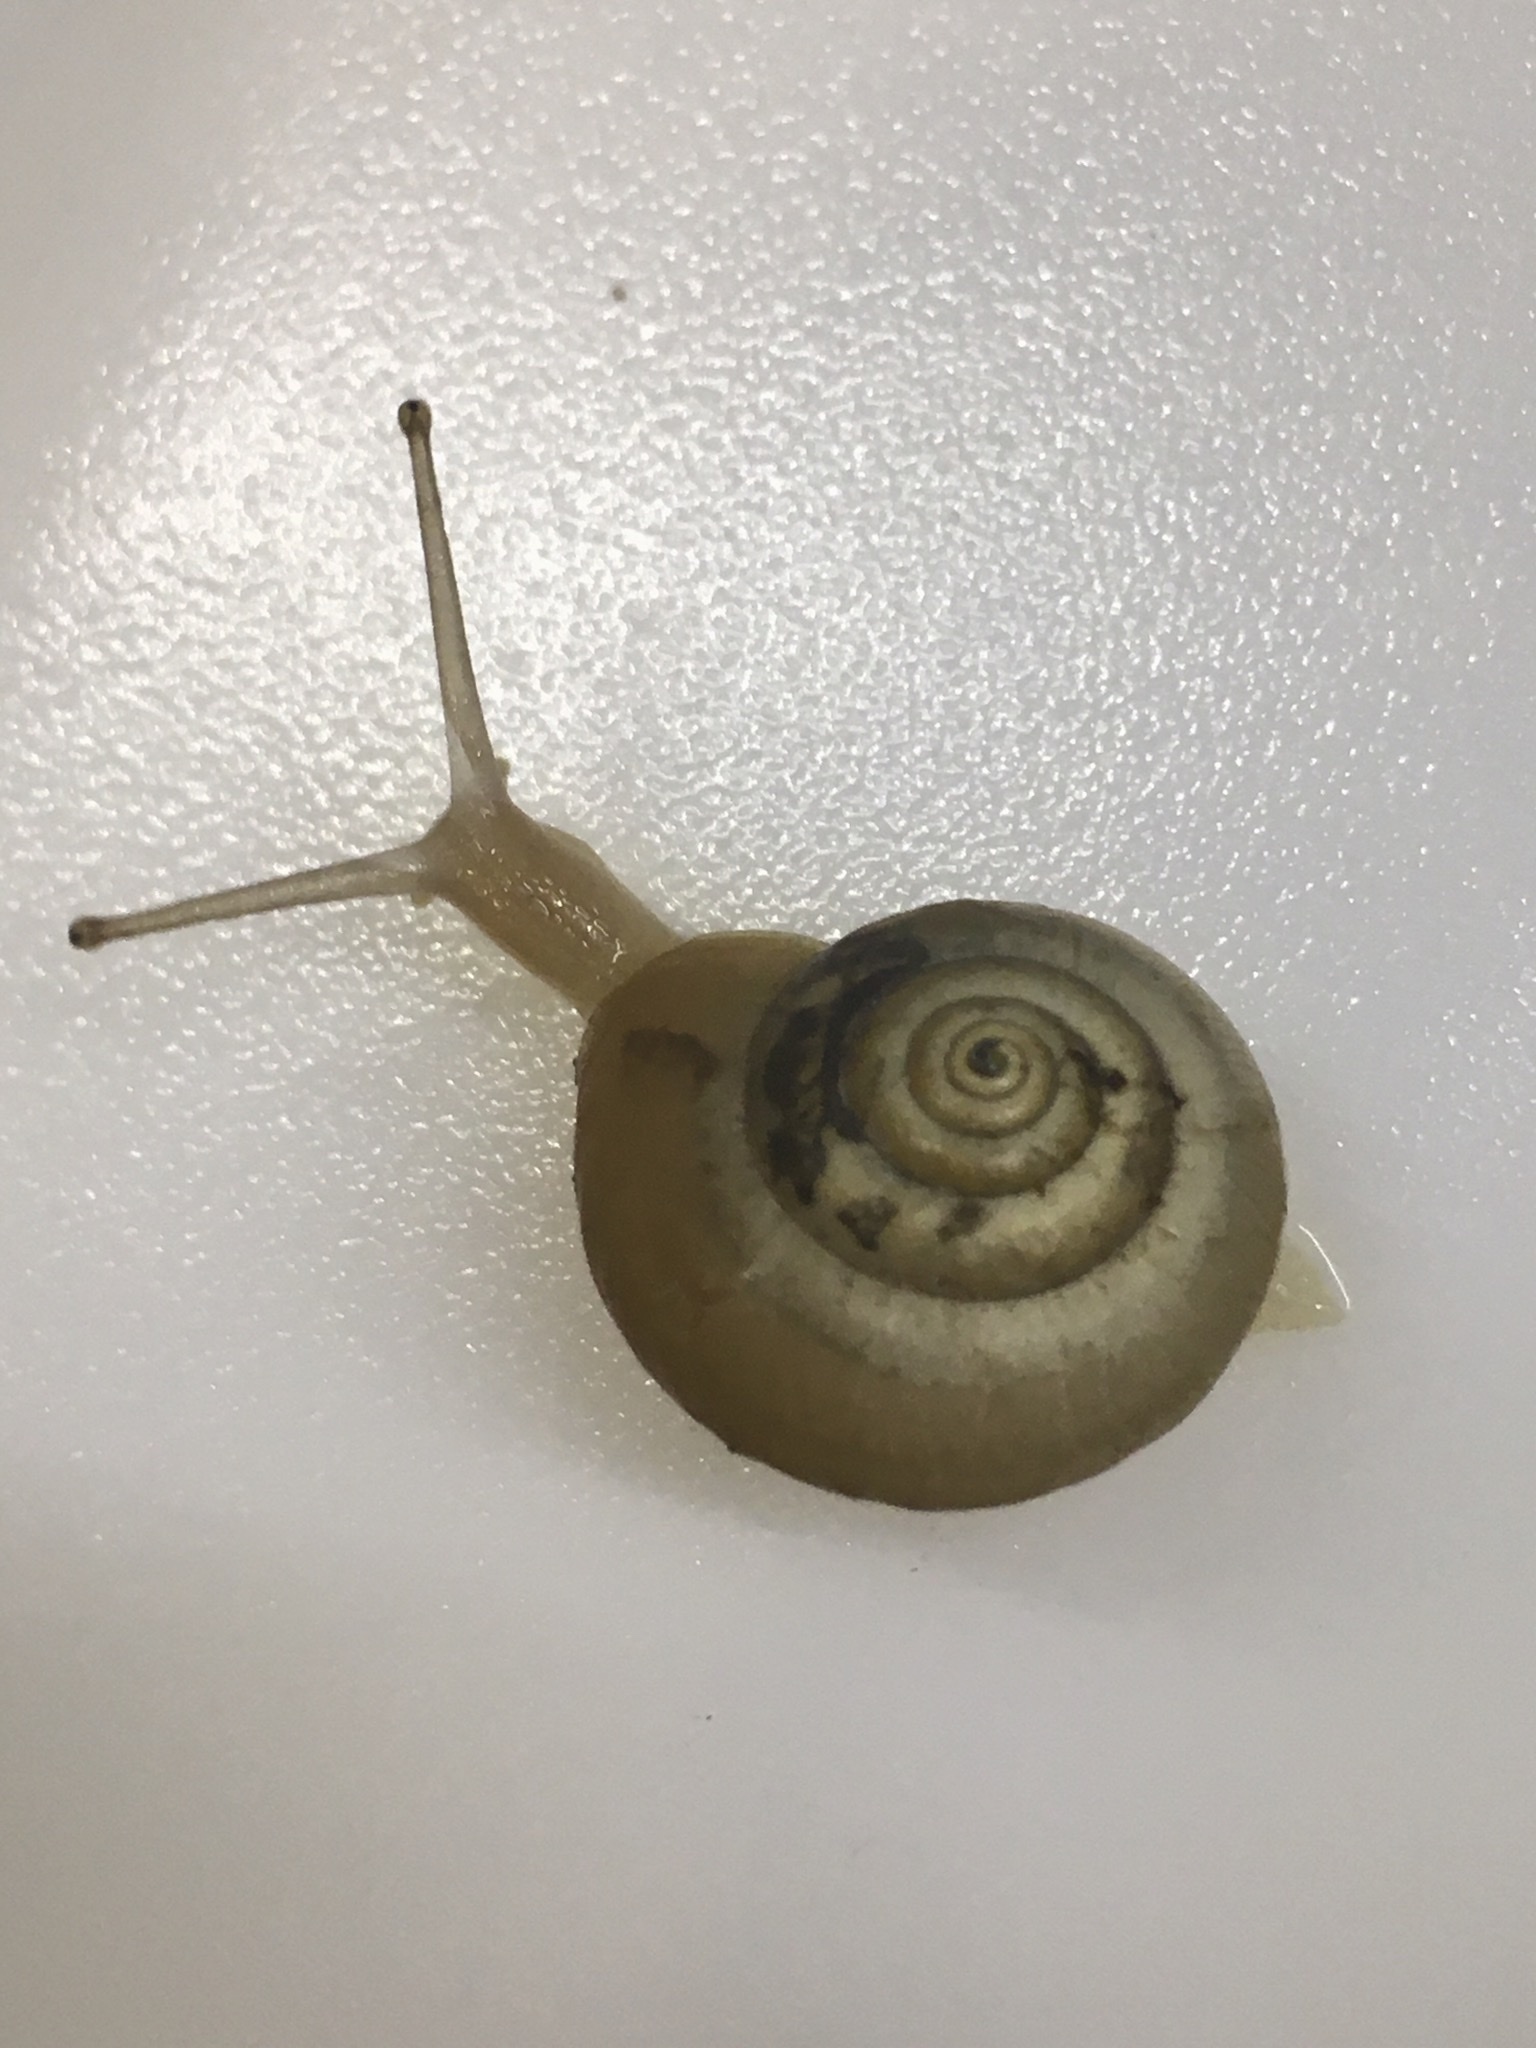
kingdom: Animalia
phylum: Mollusca
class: Gastropoda
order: Stylommatophora
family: Hygromiidae
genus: Monacha
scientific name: Monacha
